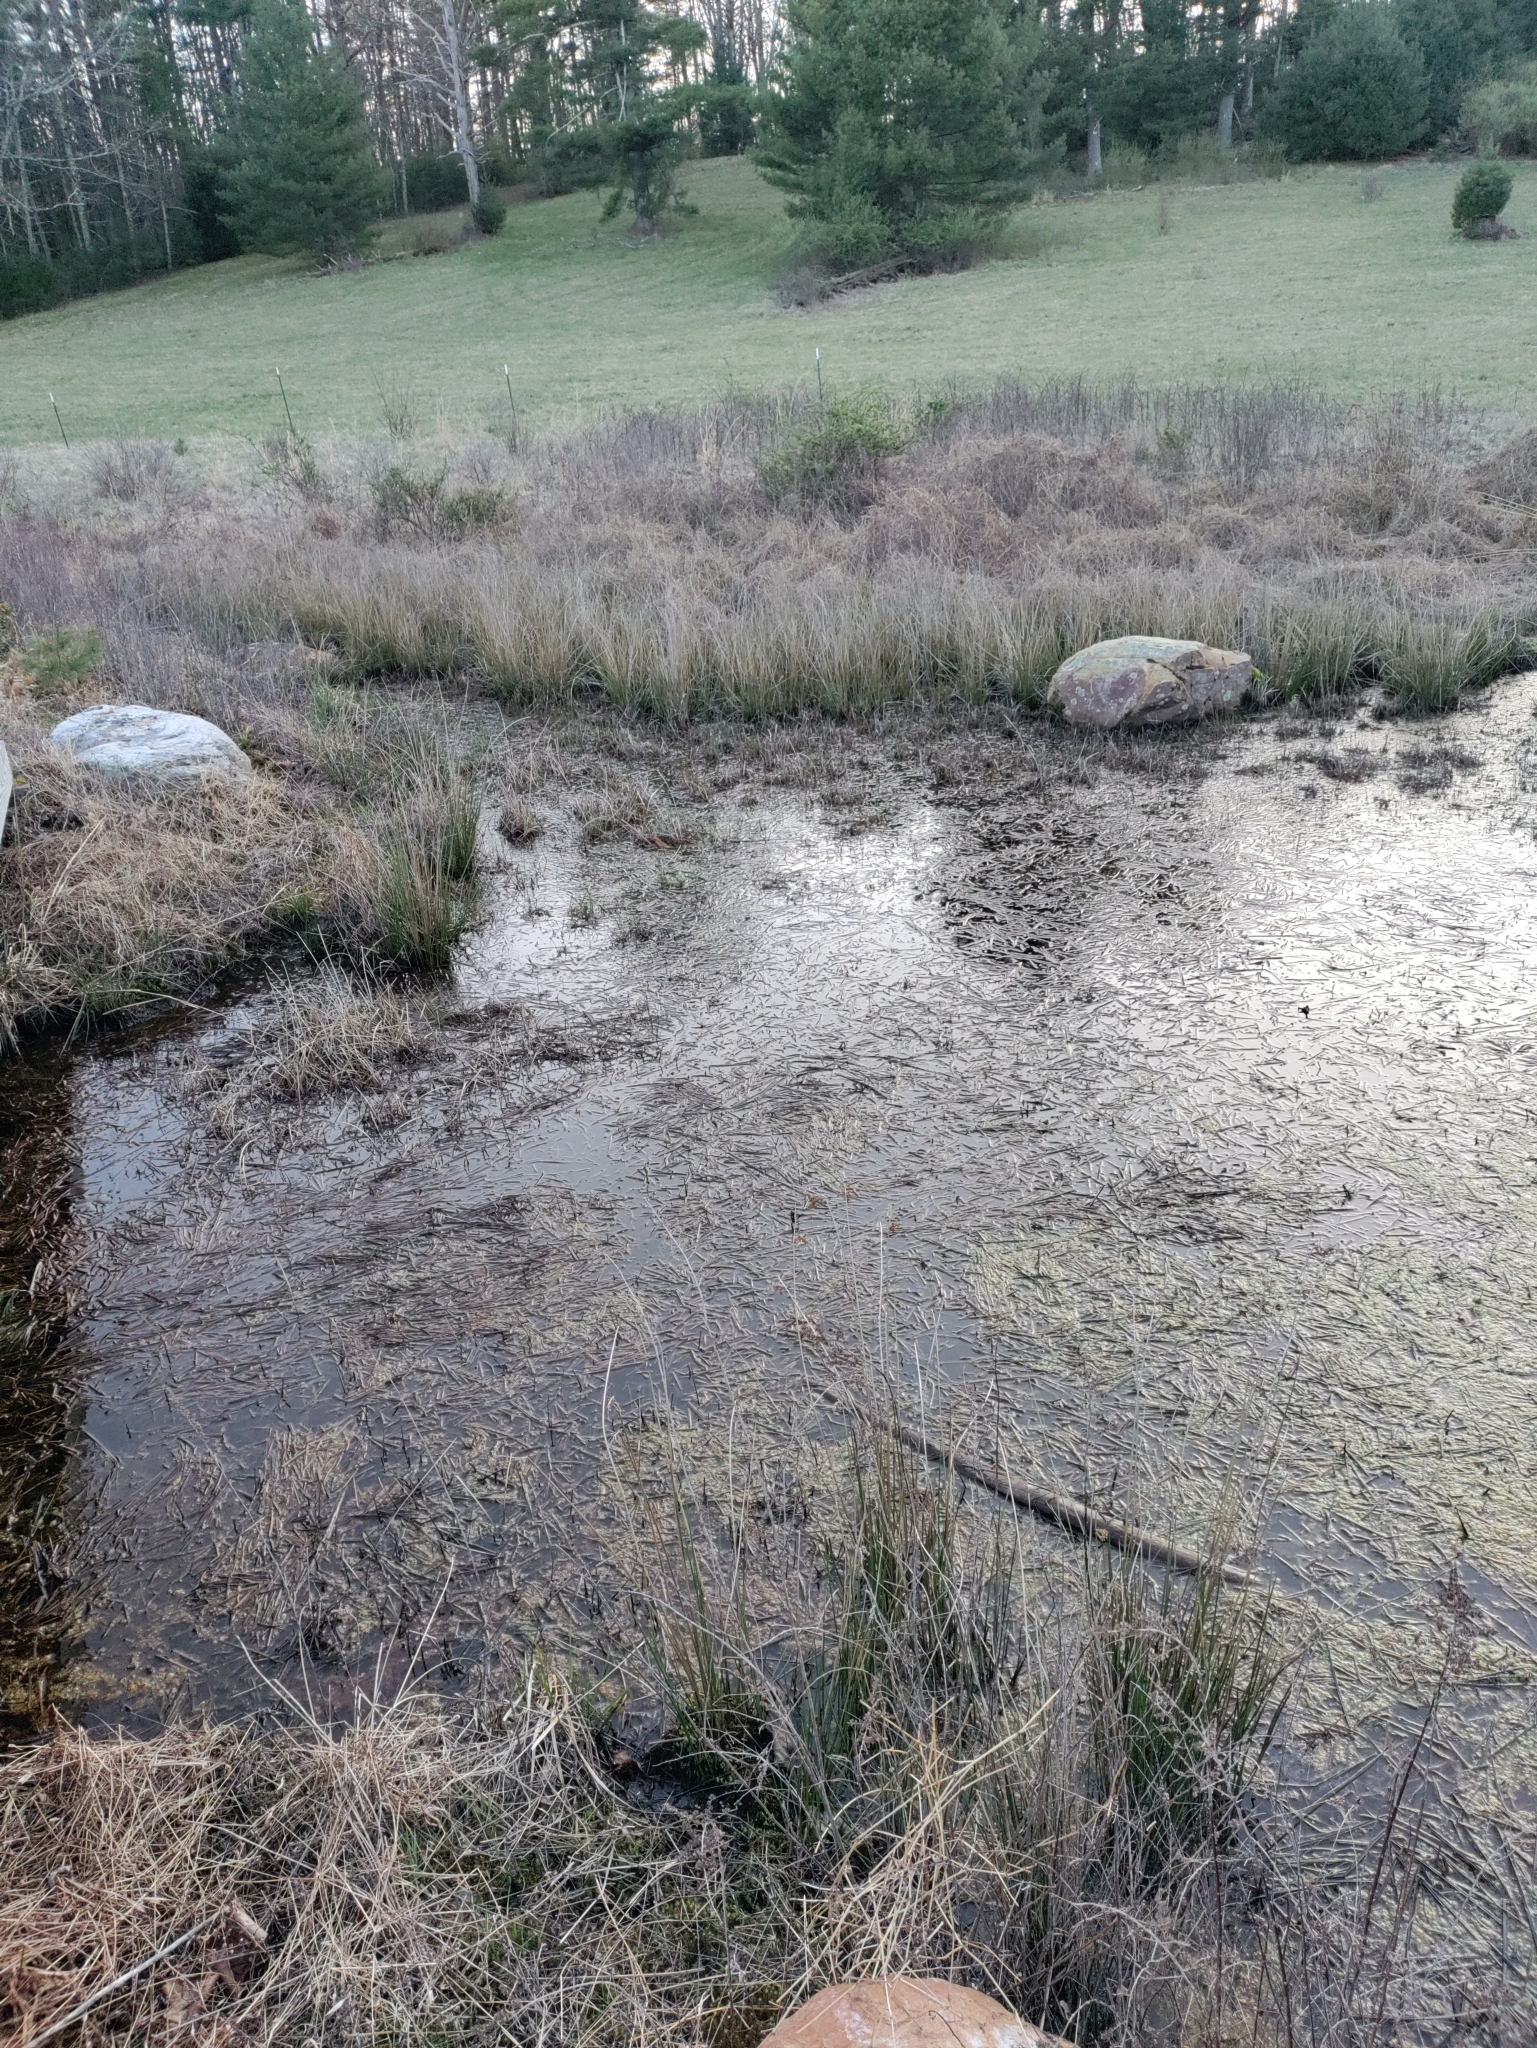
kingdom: Animalia
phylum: Chordata
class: Amphibia
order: Anura
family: Hylidae
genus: Pseudacris
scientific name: Pseudacris crucifer
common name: Spring peeper
